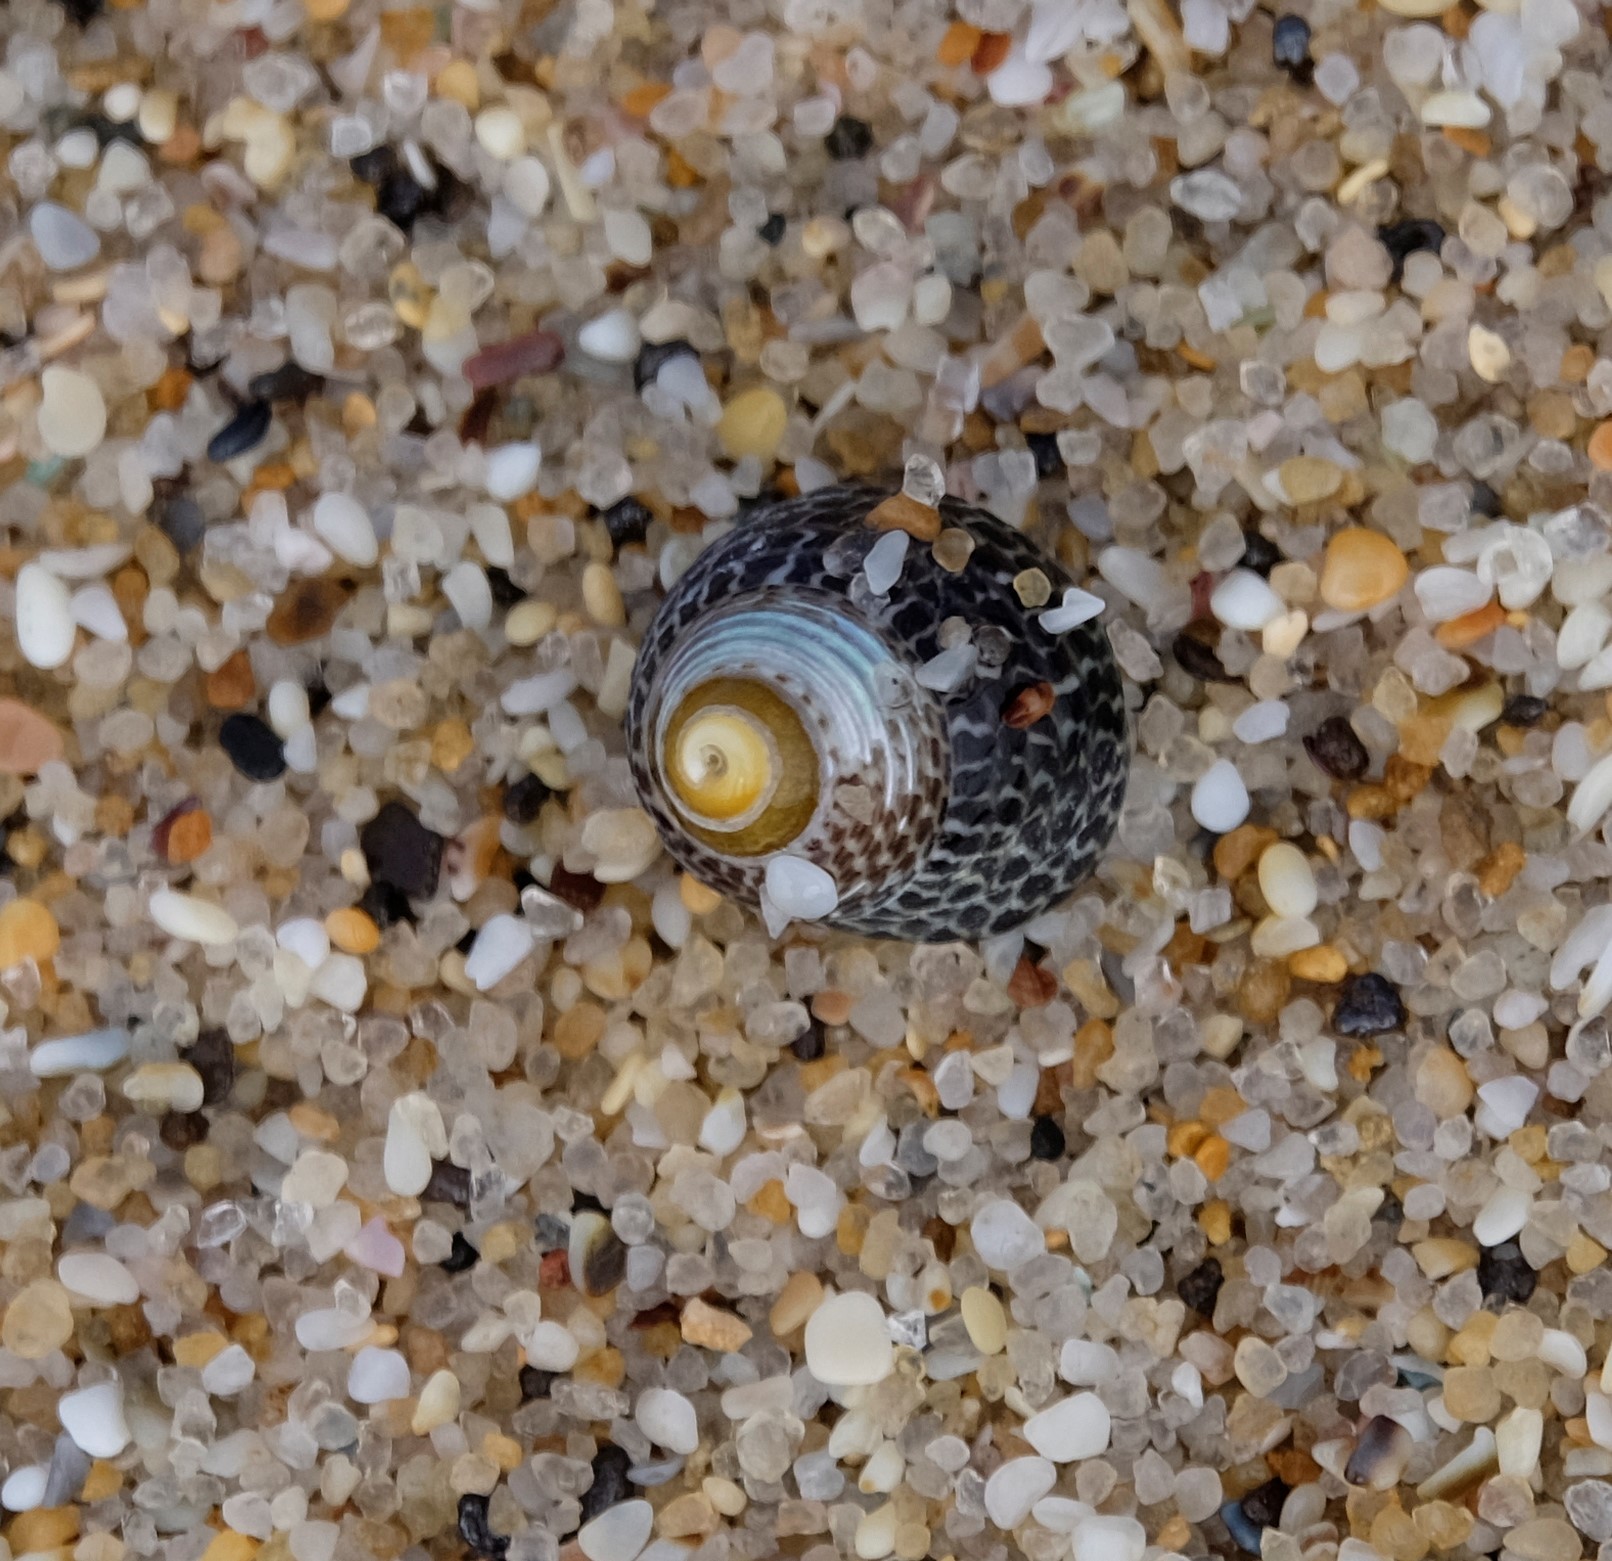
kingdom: Animalia
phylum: Mollusca
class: Gastropoda
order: Trochida
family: Trochidae
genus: Chlorodiloma
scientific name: Chlorodiloma adelaidae
